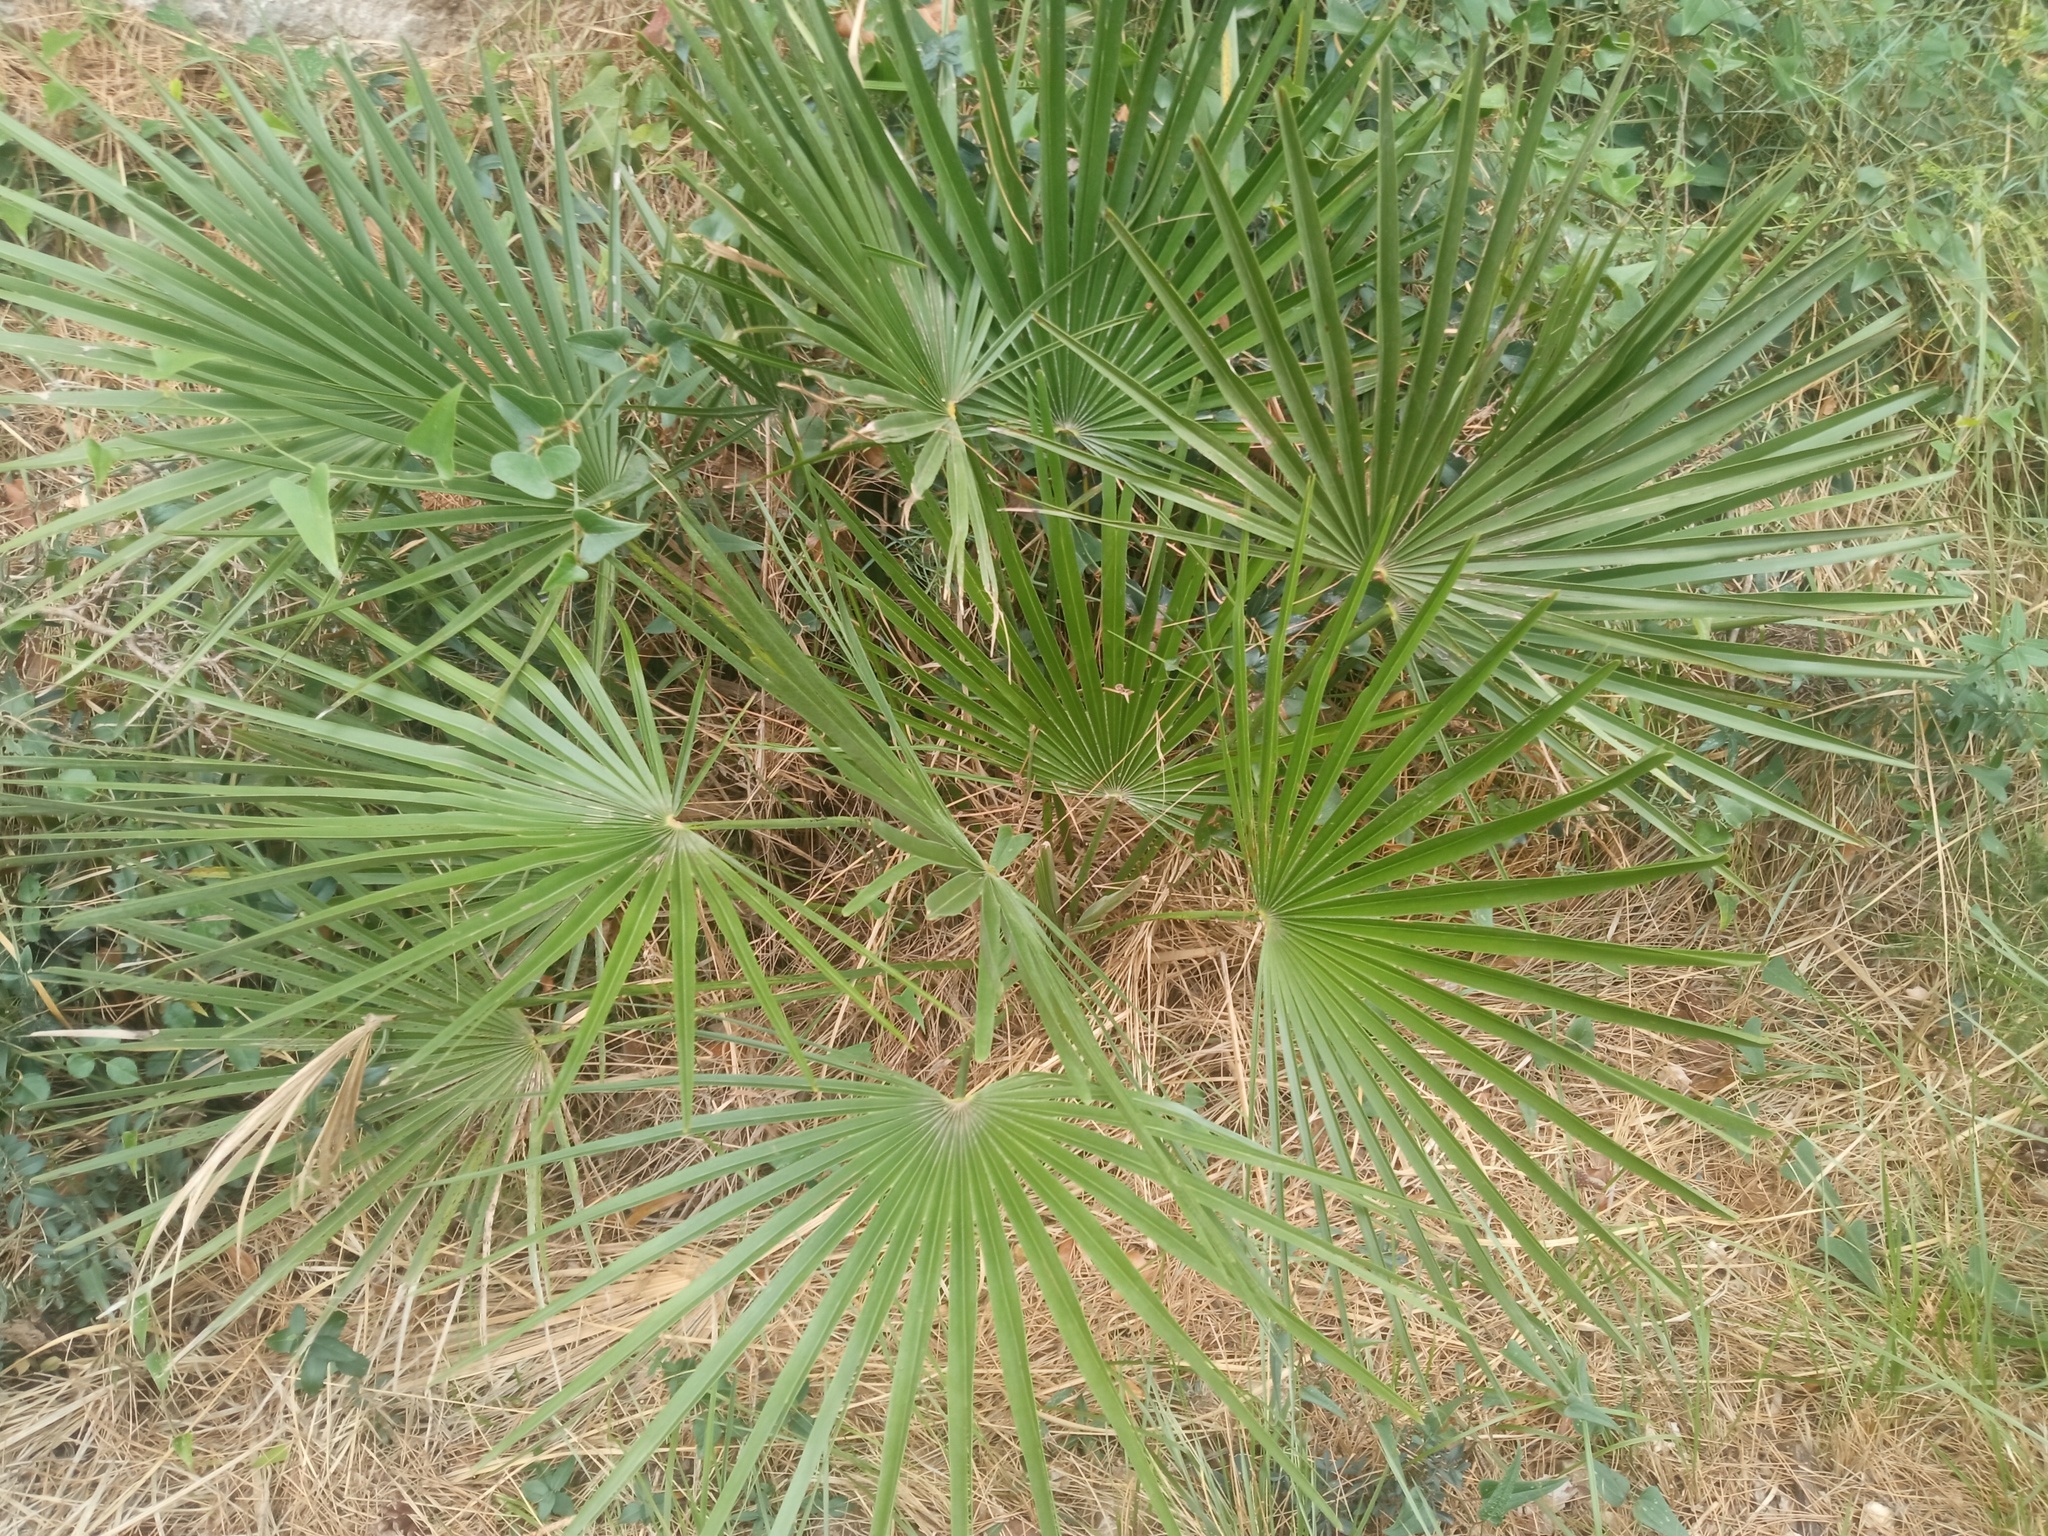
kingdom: Plantae
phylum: Tracheophyta
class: Liliopsida
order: Arecales
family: Arecaceae
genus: Chamaerops
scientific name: Chamaerops humilis
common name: Dwarf fan palm
